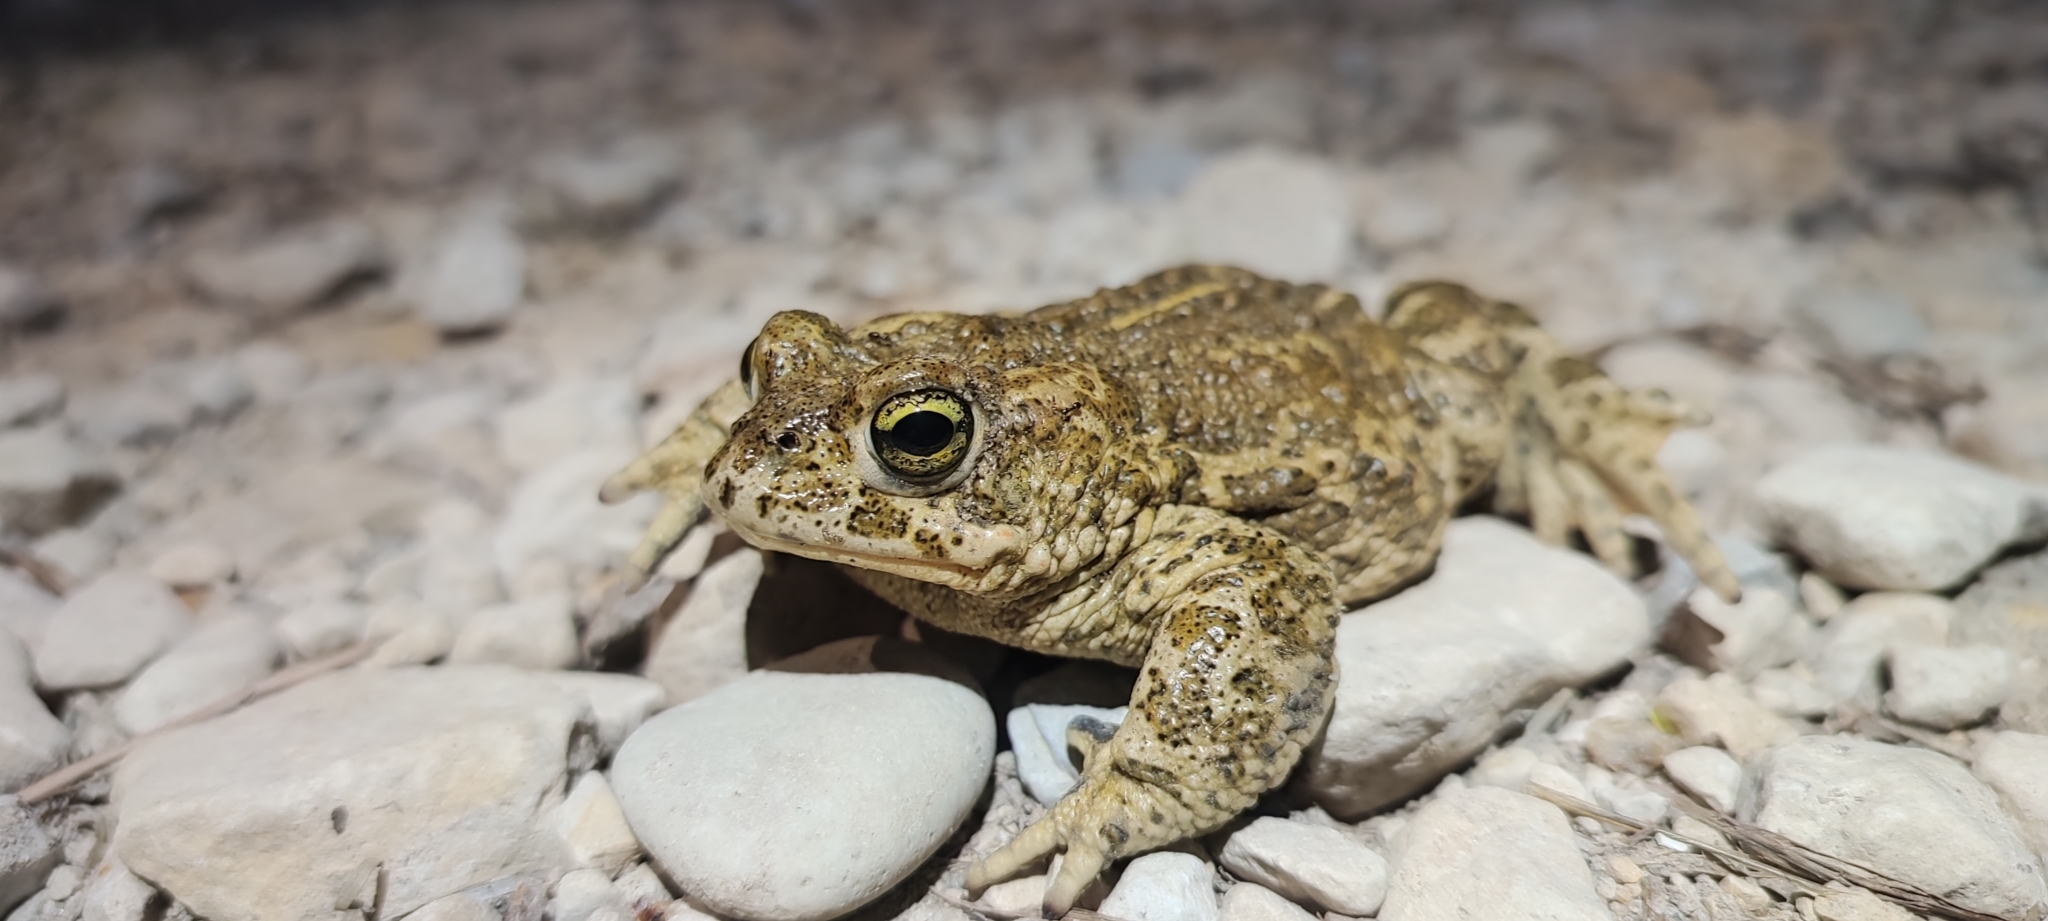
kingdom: Animalia
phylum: Chordata
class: Amphibia
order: Anura
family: Bufonidae
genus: Epidalea
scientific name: Epidalea calamita
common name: Natterjack toad
